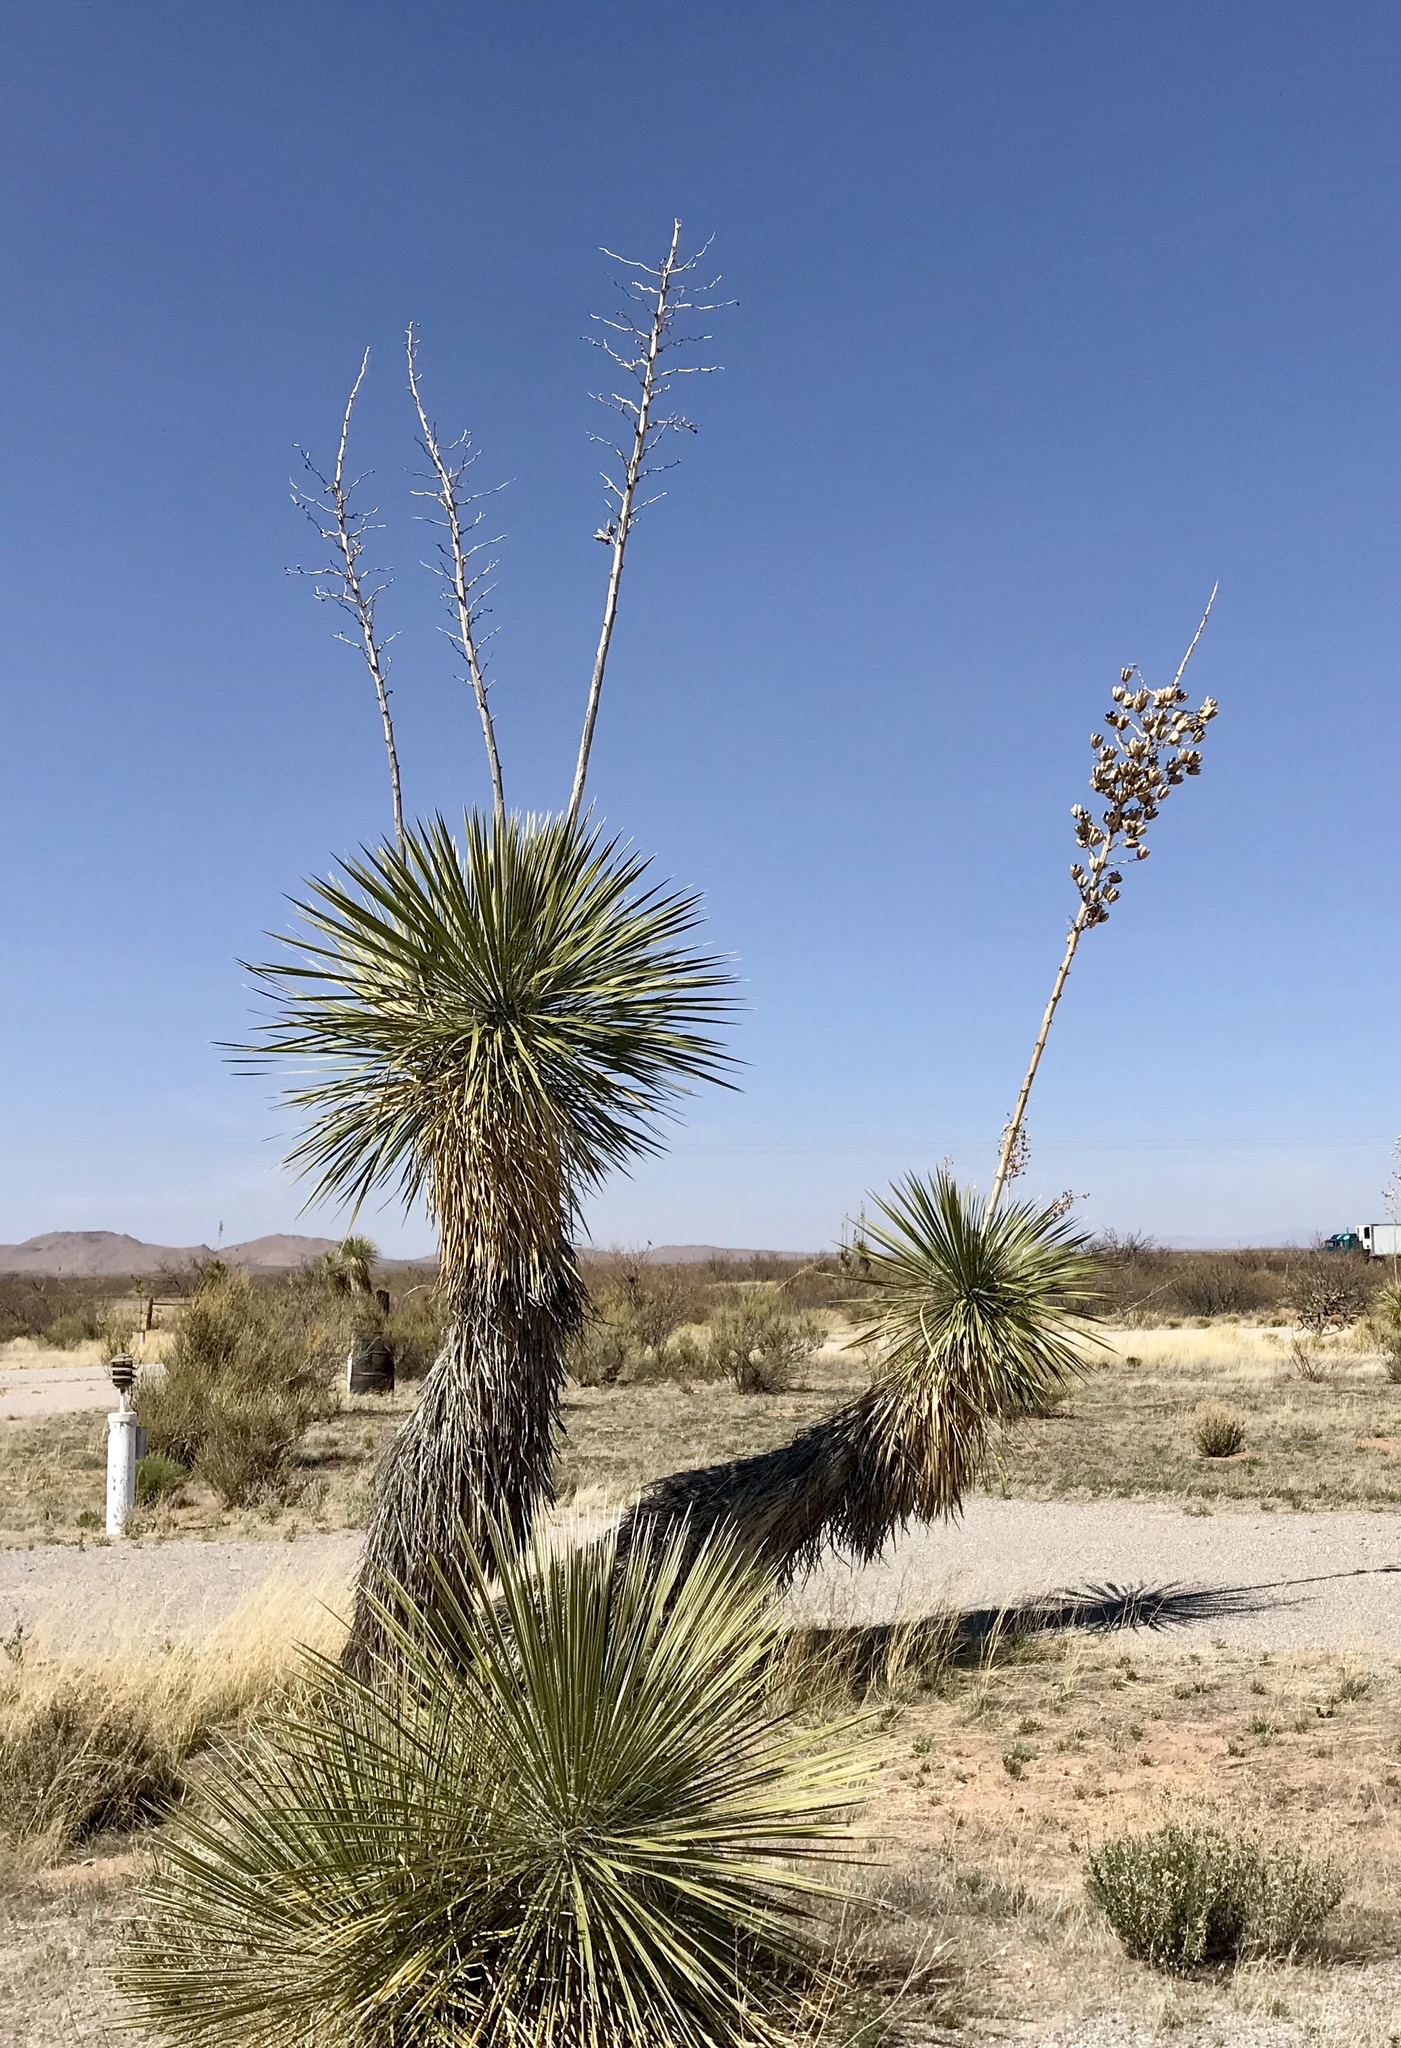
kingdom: Plantae
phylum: Tracheophyta
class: Liliopsida
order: Asparagales
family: Asparagaceae
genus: Yucca
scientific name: Yucca elata
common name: Palmella
